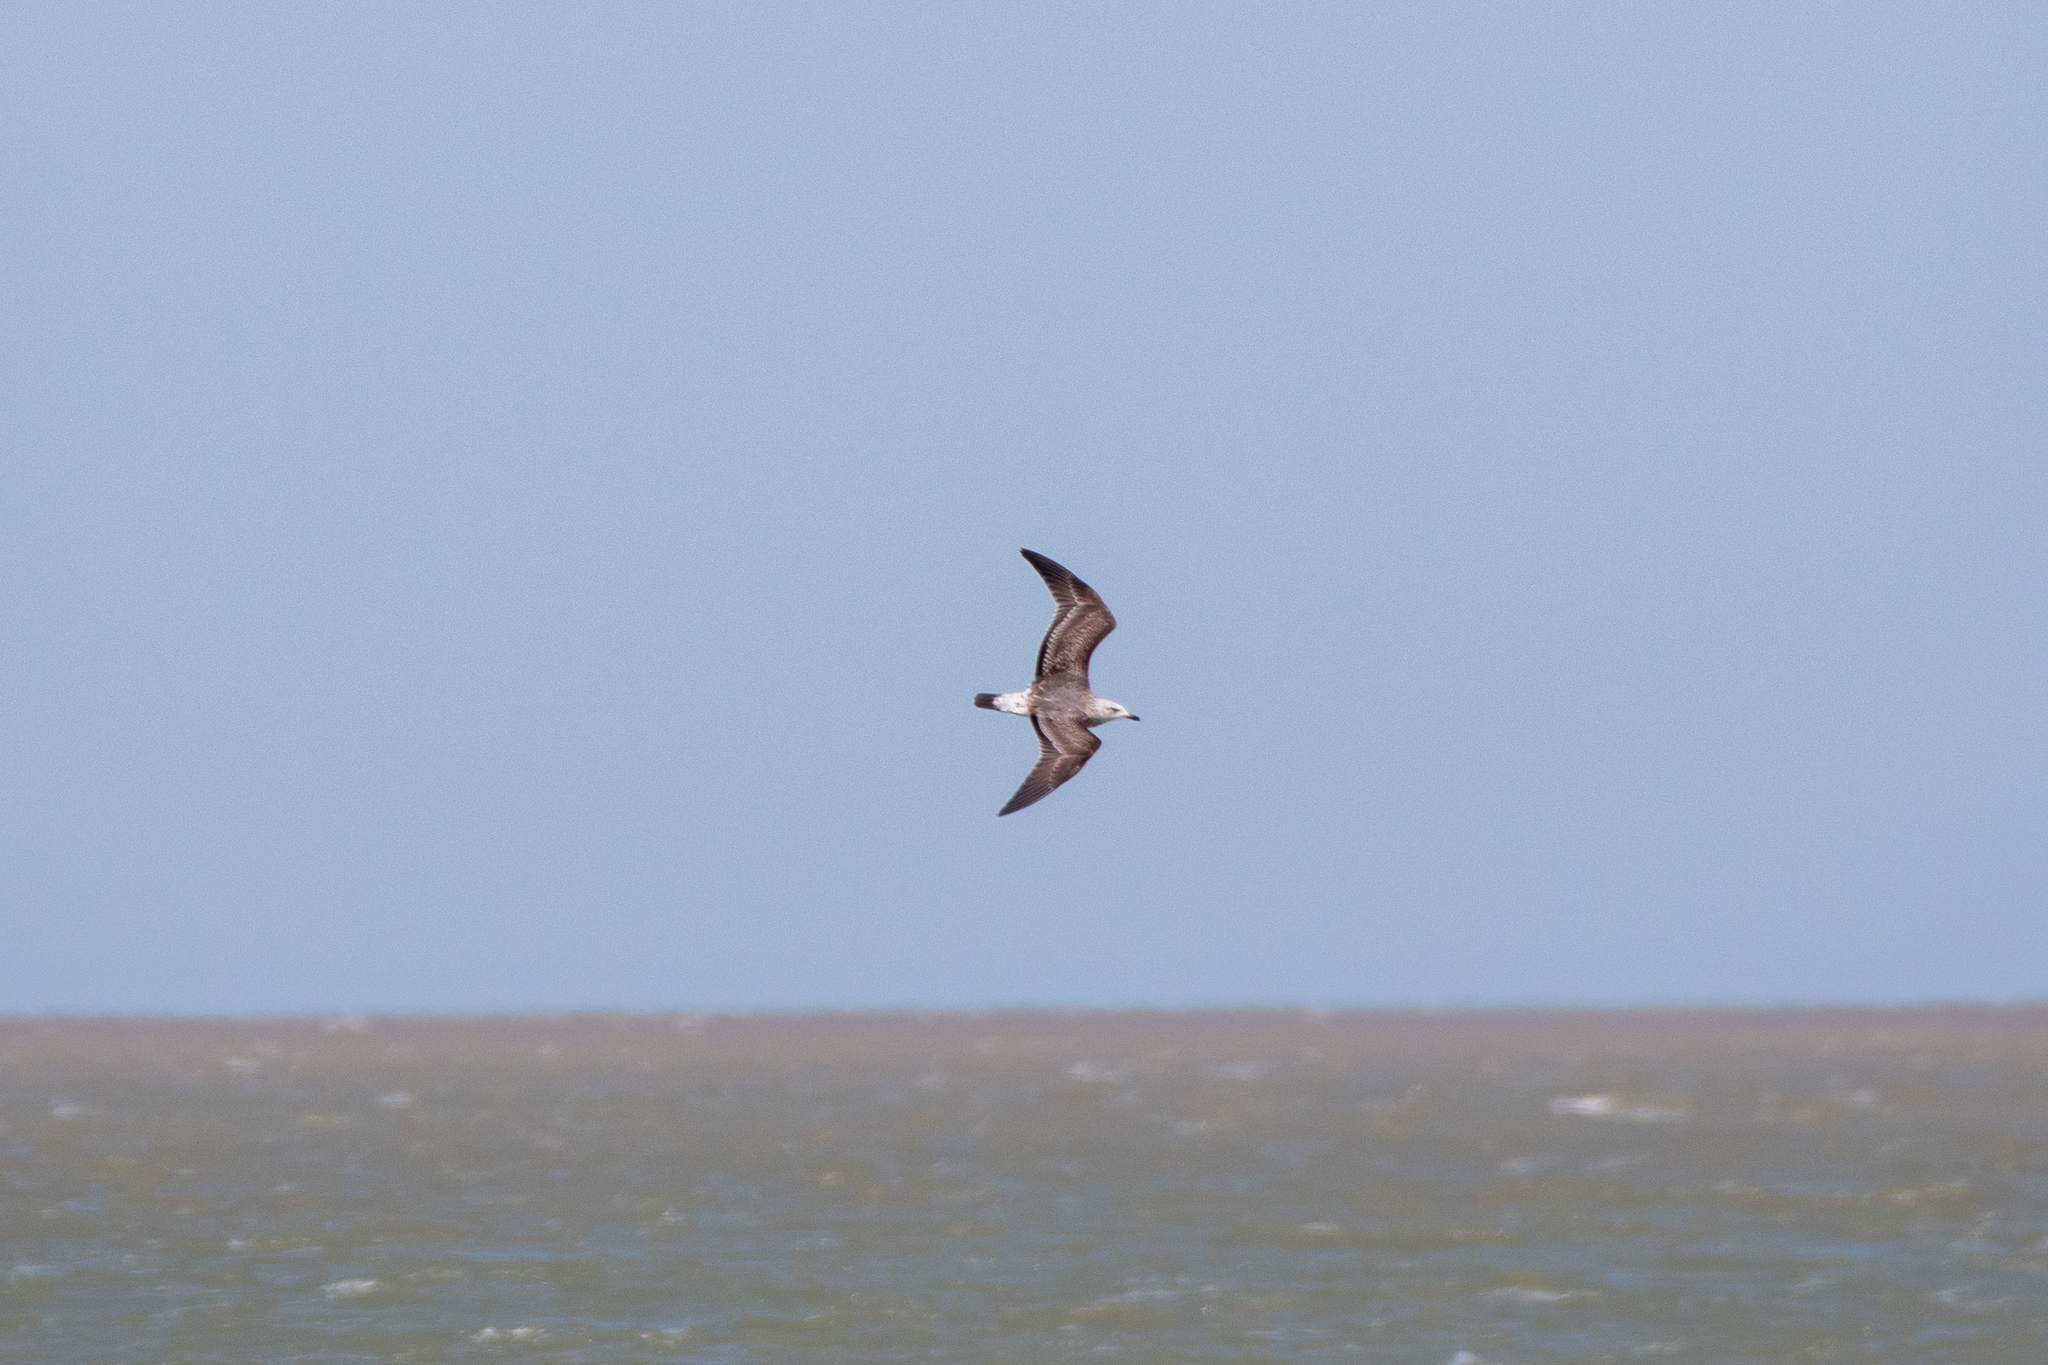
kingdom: Animalia
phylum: Chordata
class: Aves
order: Charadriiformes
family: Laridae
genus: Larus
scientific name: Larus marinus
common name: Great black-backed gull
